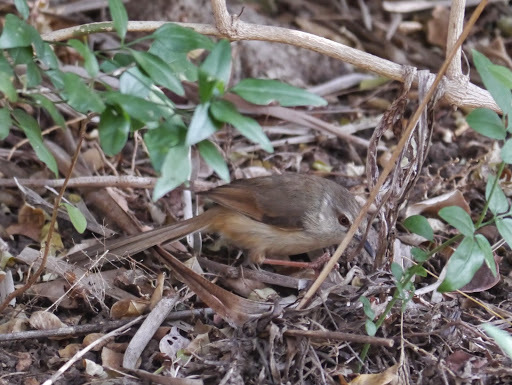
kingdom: Animalia
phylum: Chordata
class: Aves
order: Passeriformes
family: Cisticolidae
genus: Prinia
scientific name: Prinia subflava
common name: Tawny-flanked prinia
